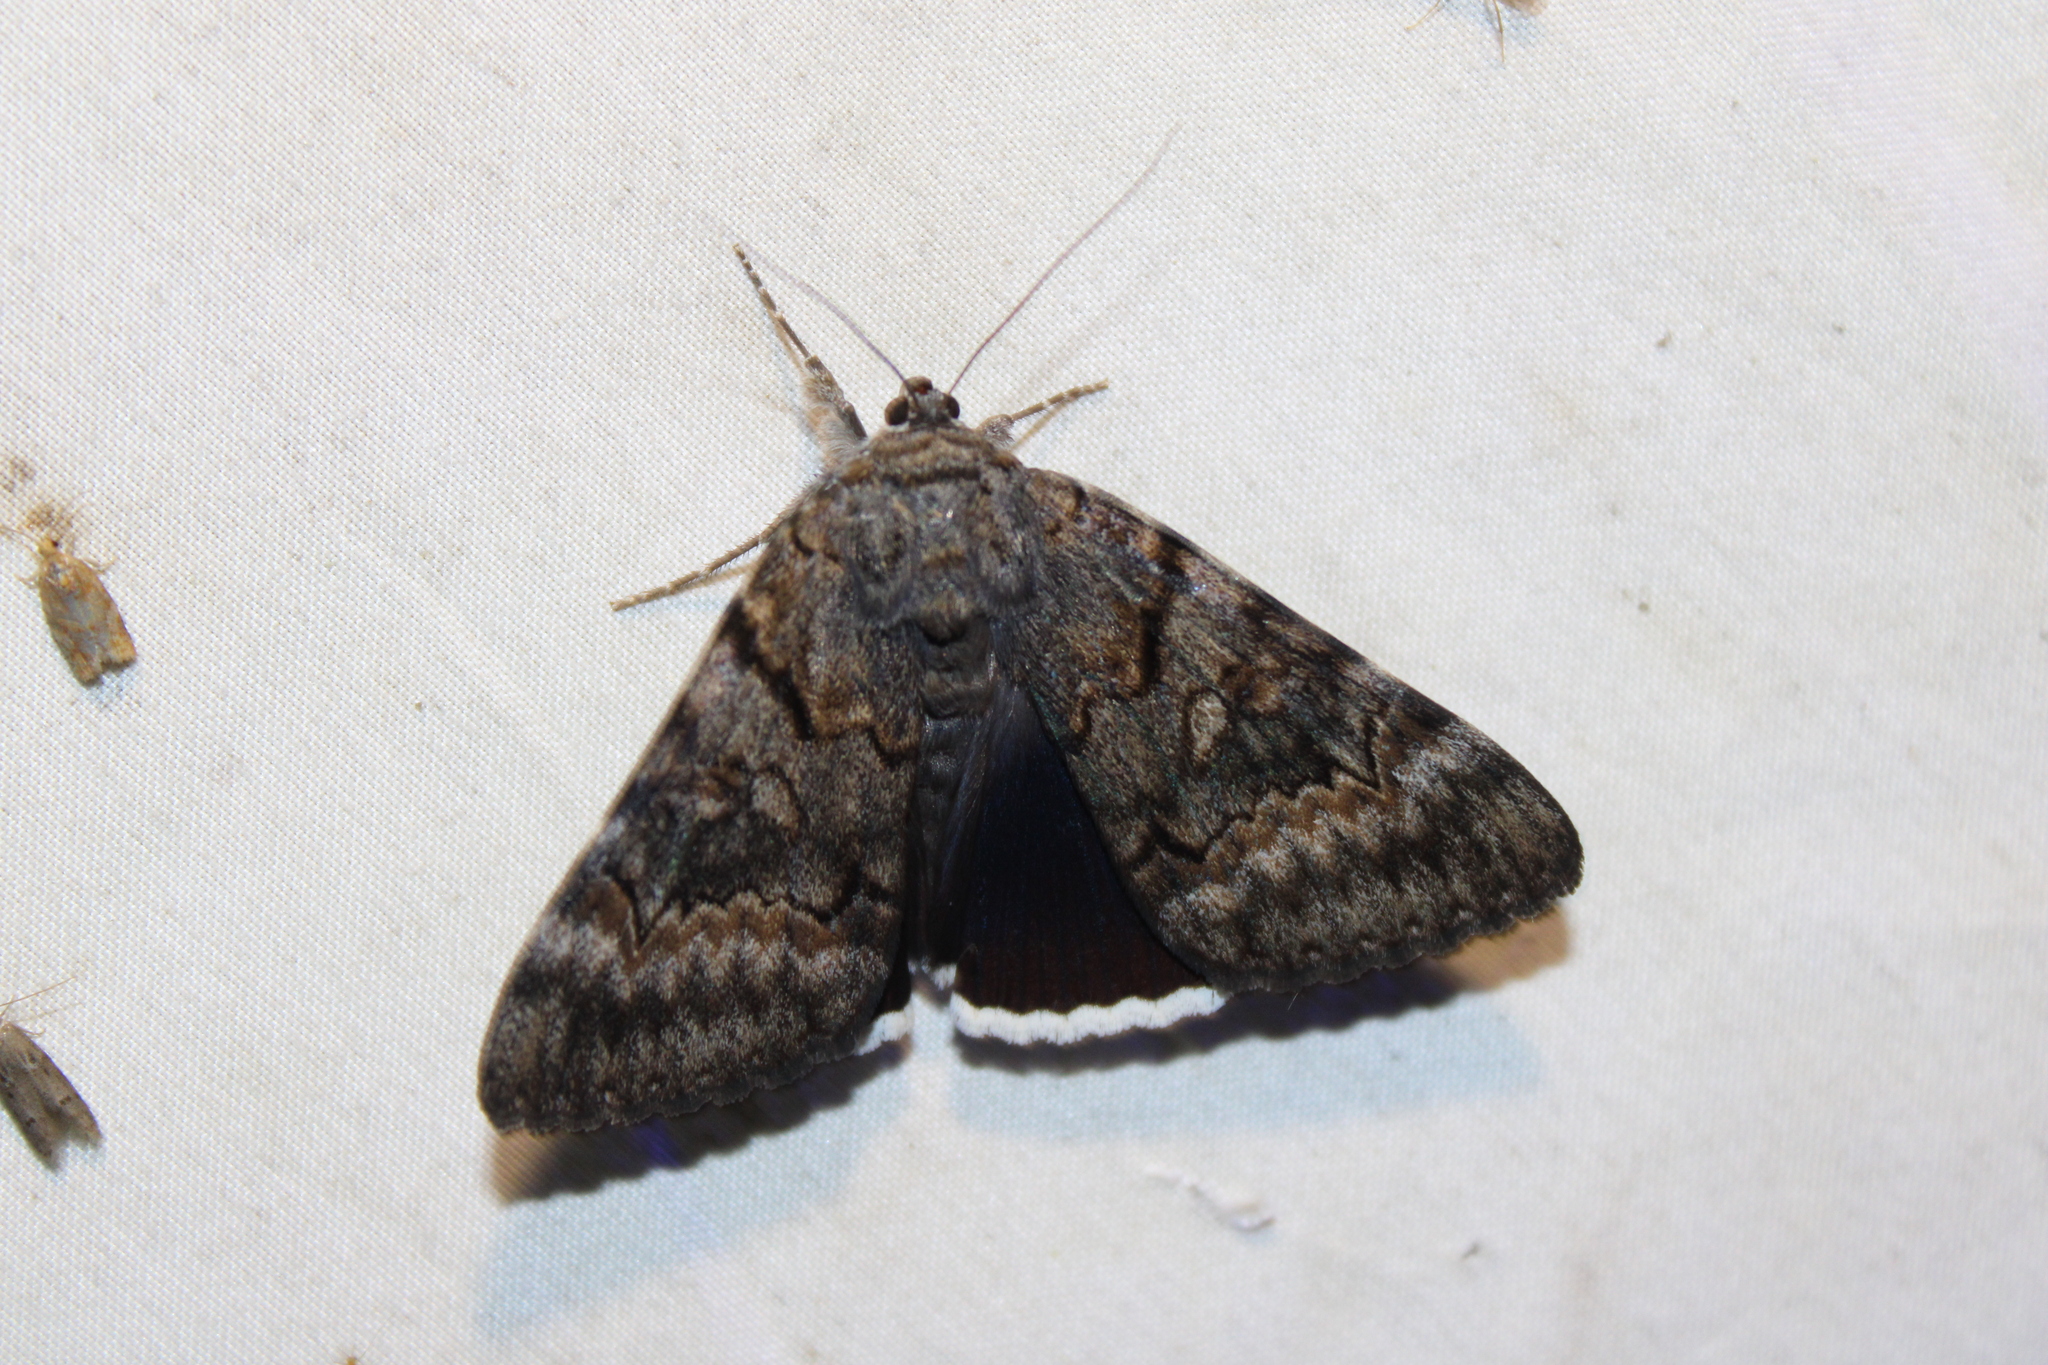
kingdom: Animalia
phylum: Arthropoda
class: Insecta
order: Lepidoptera
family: Erebidae
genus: Catocala
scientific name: Catocala epione
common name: Epione underwing
